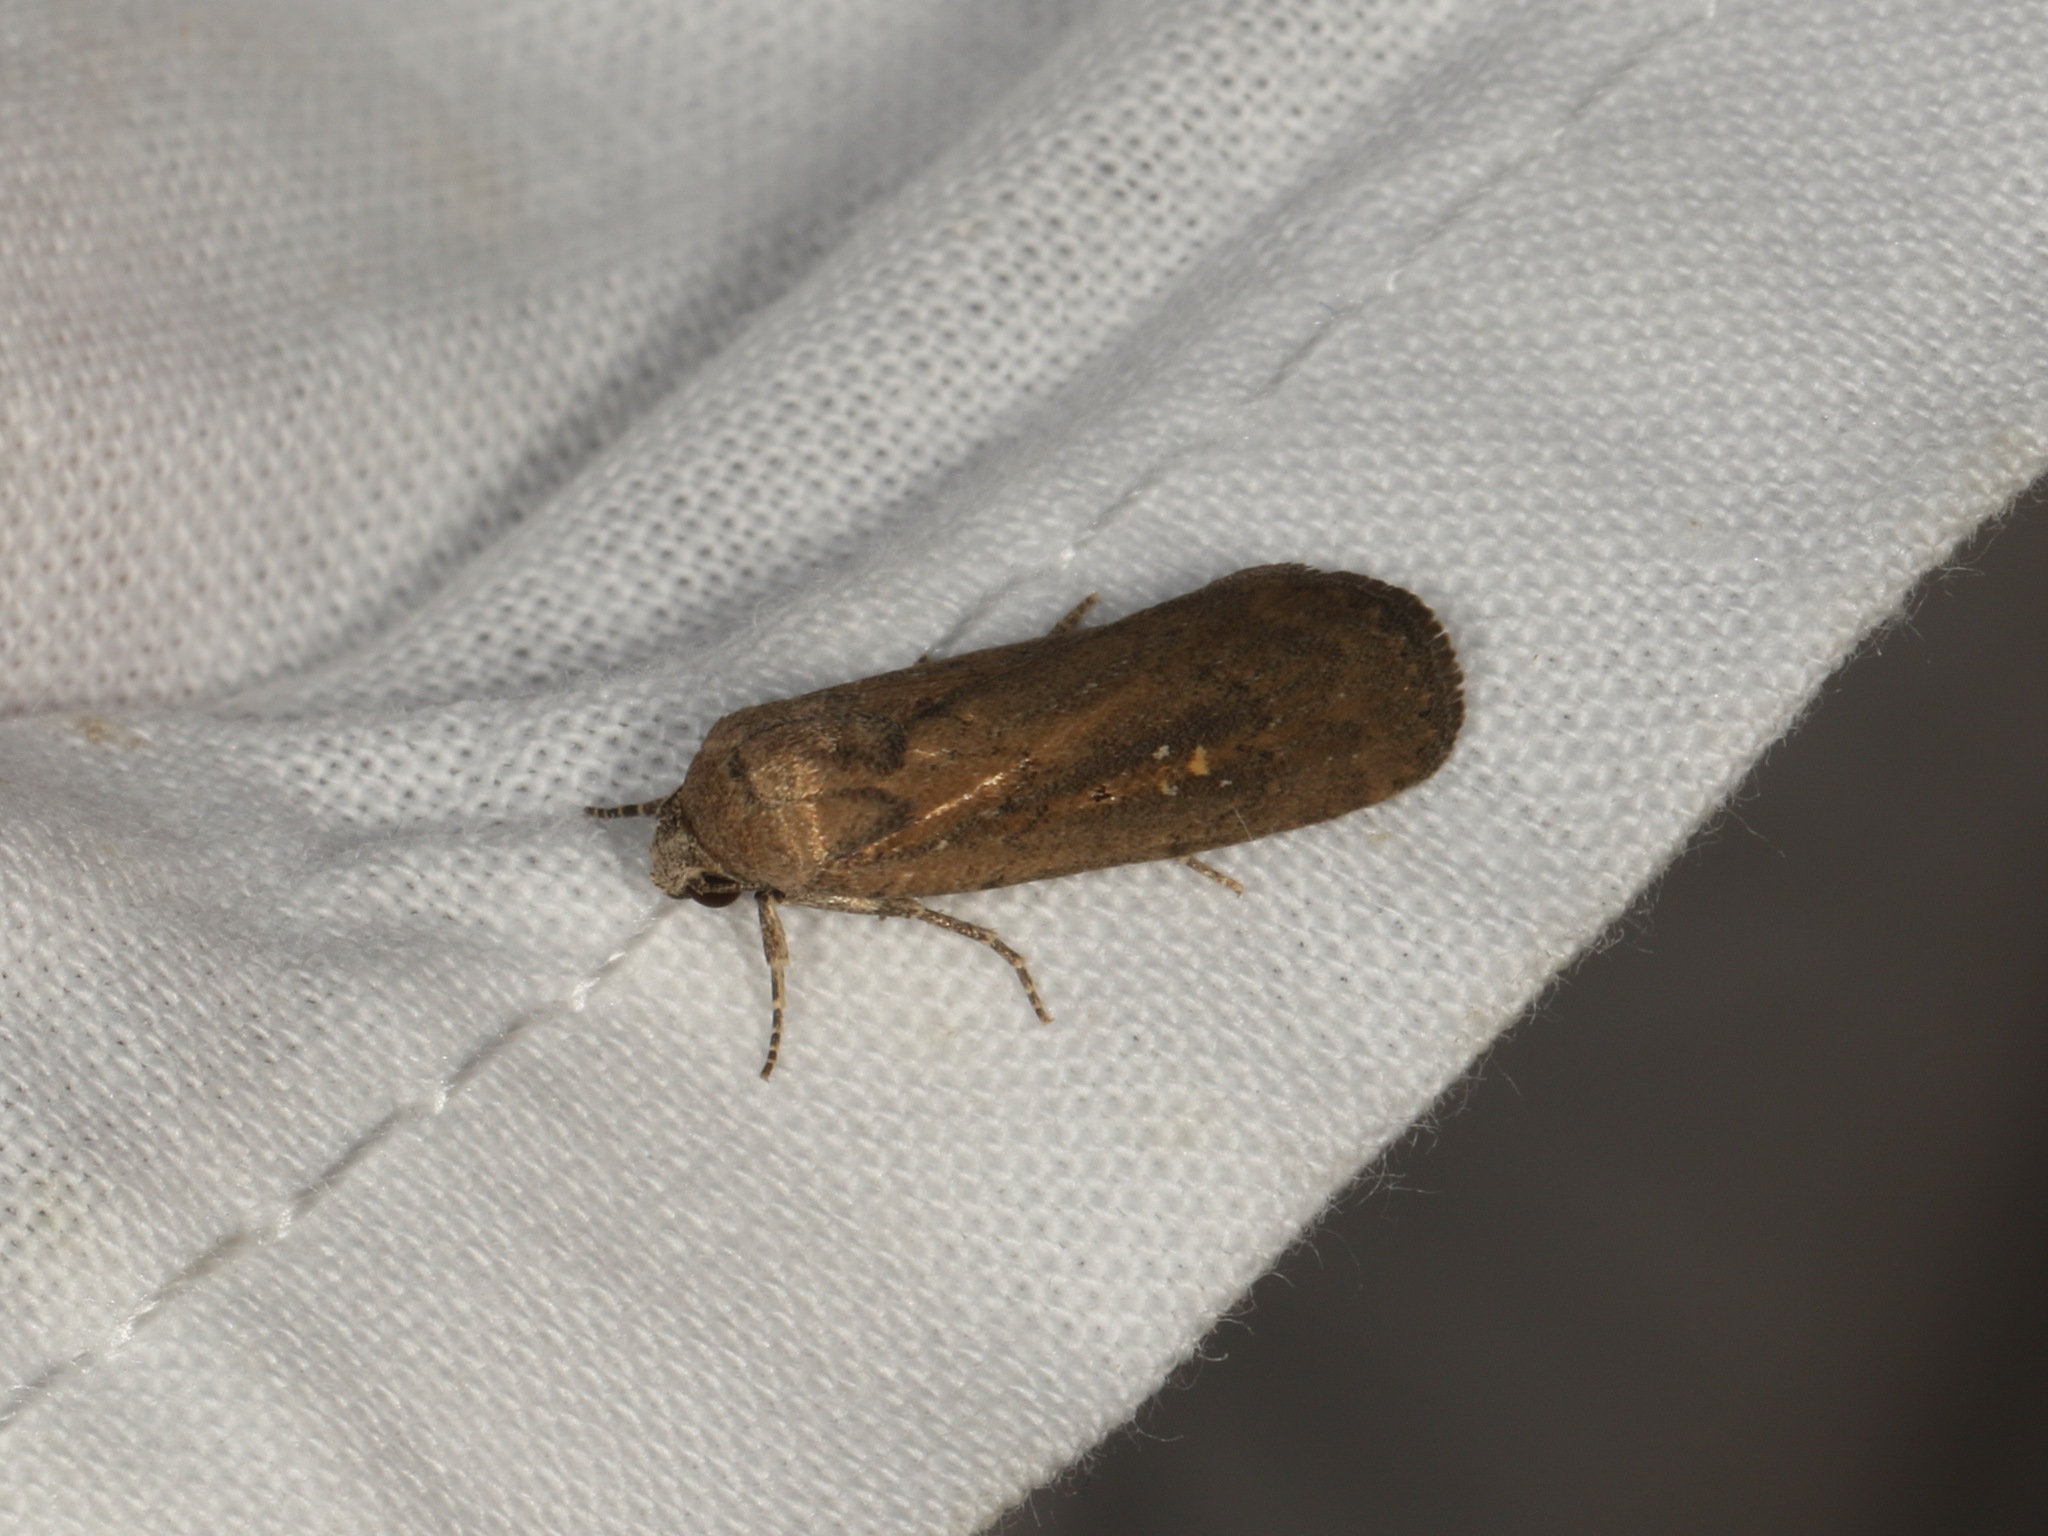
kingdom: Animalia
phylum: Arthropoda
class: Insecta
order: Lepidoptera
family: Noctuidae
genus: Athetis
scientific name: Athetis tenuis
